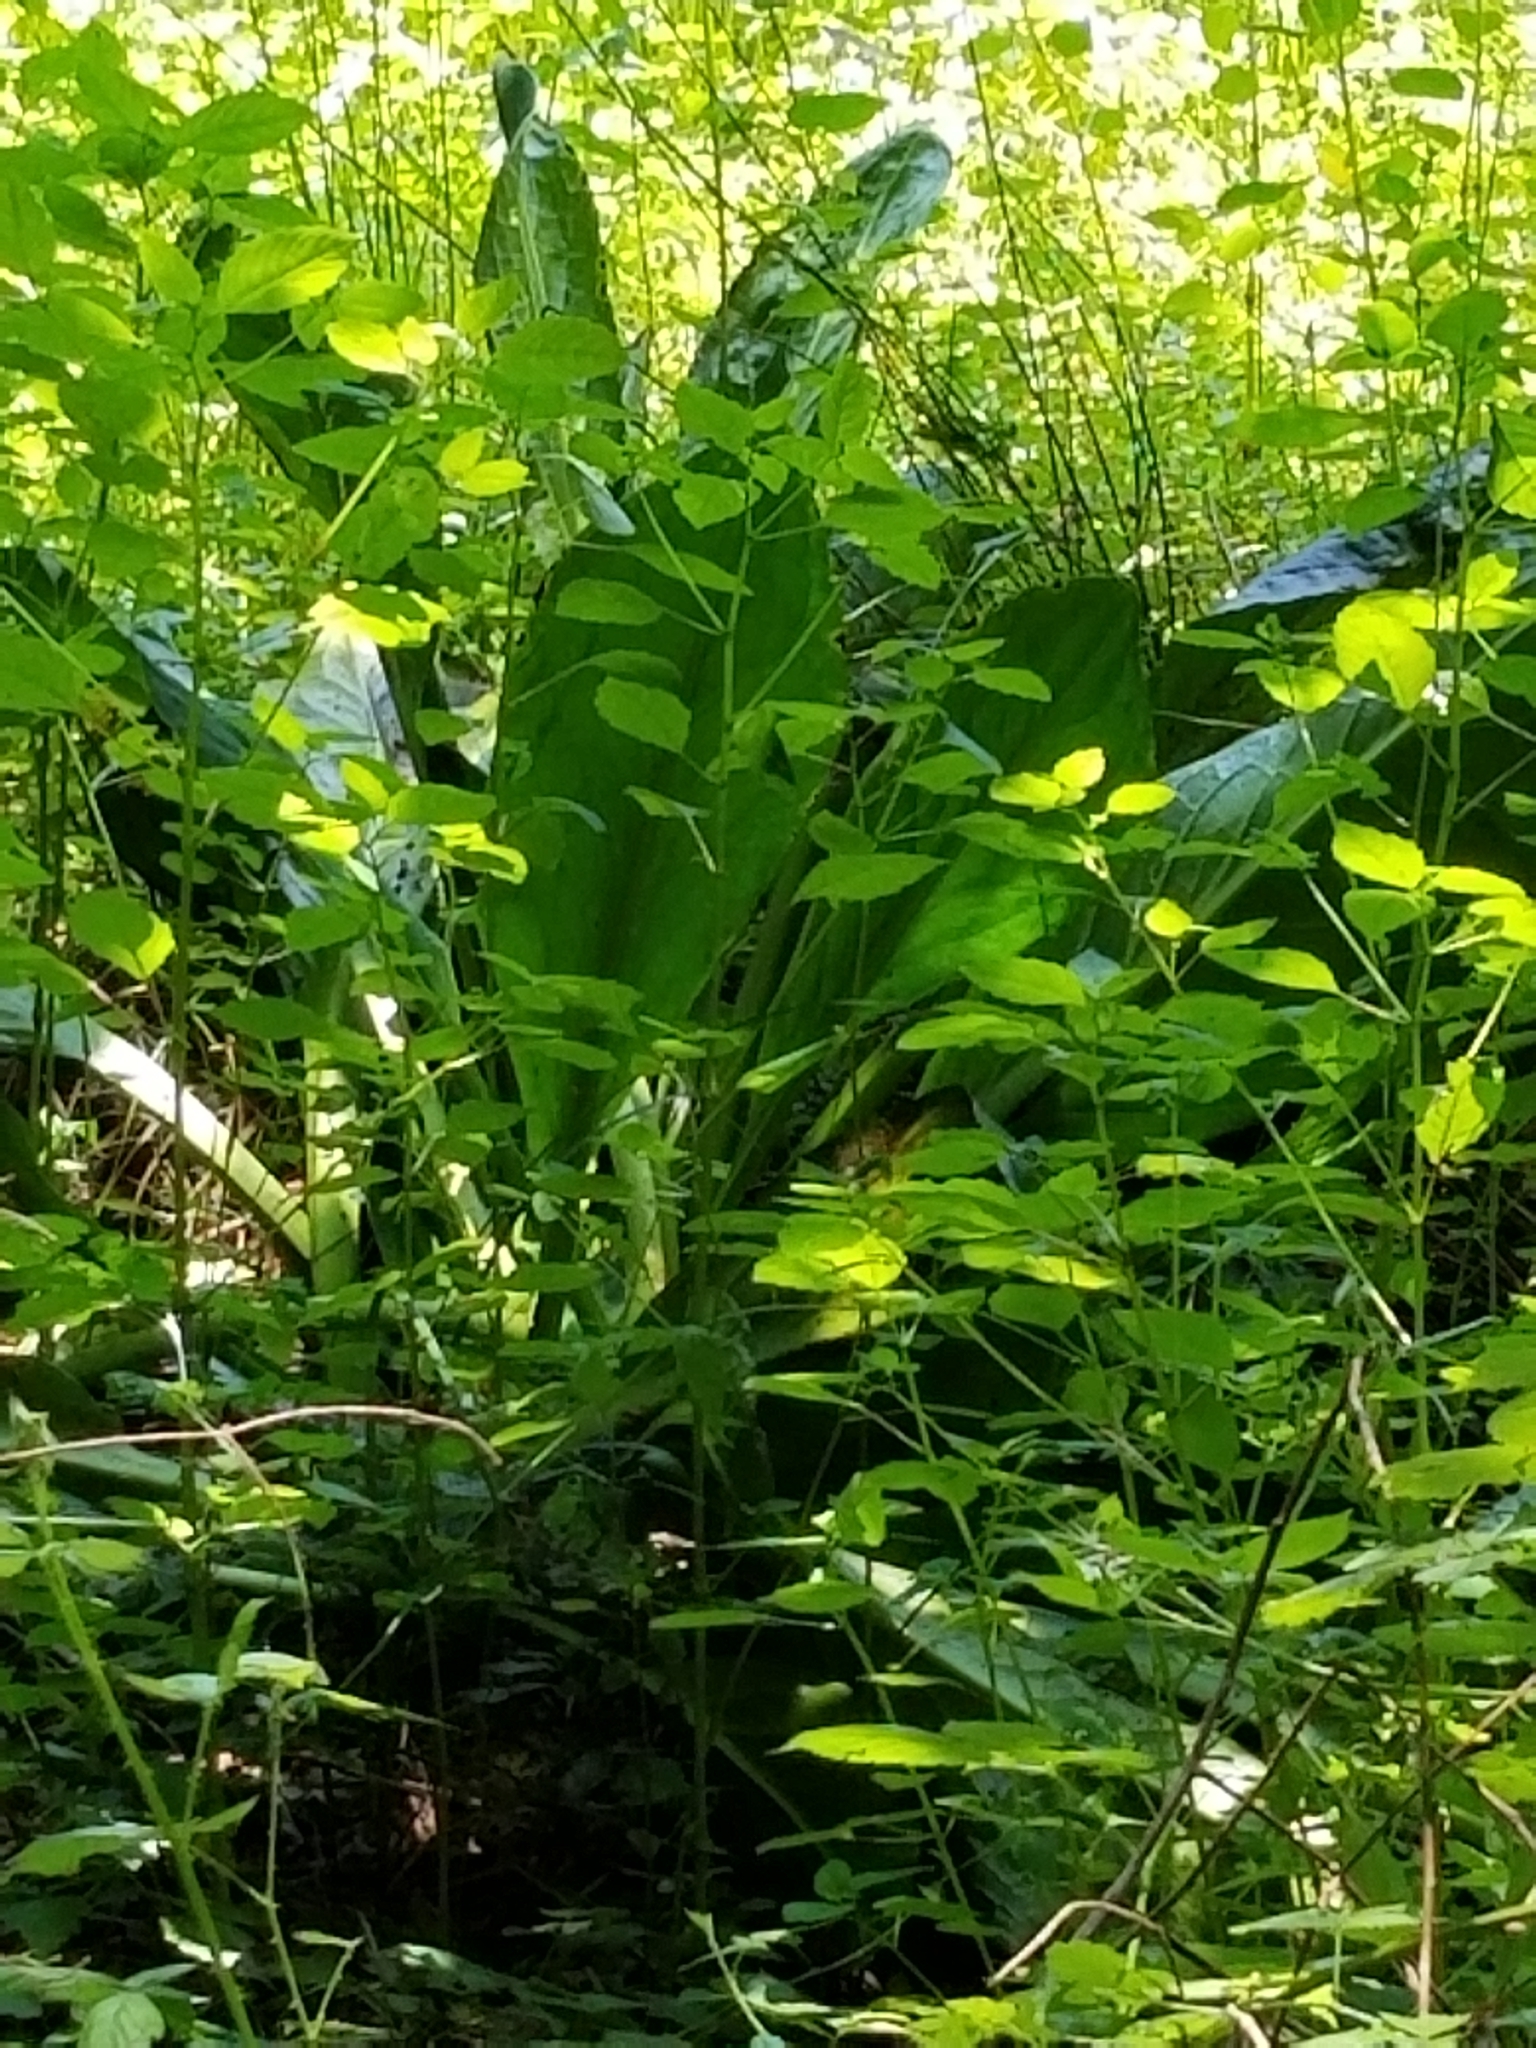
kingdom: Plantae
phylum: Tracheophyta
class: Liliopsida
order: Alismatales
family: Araceae
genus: Lysichiton
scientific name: Lysichiton americanus
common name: American skunk cabbage
